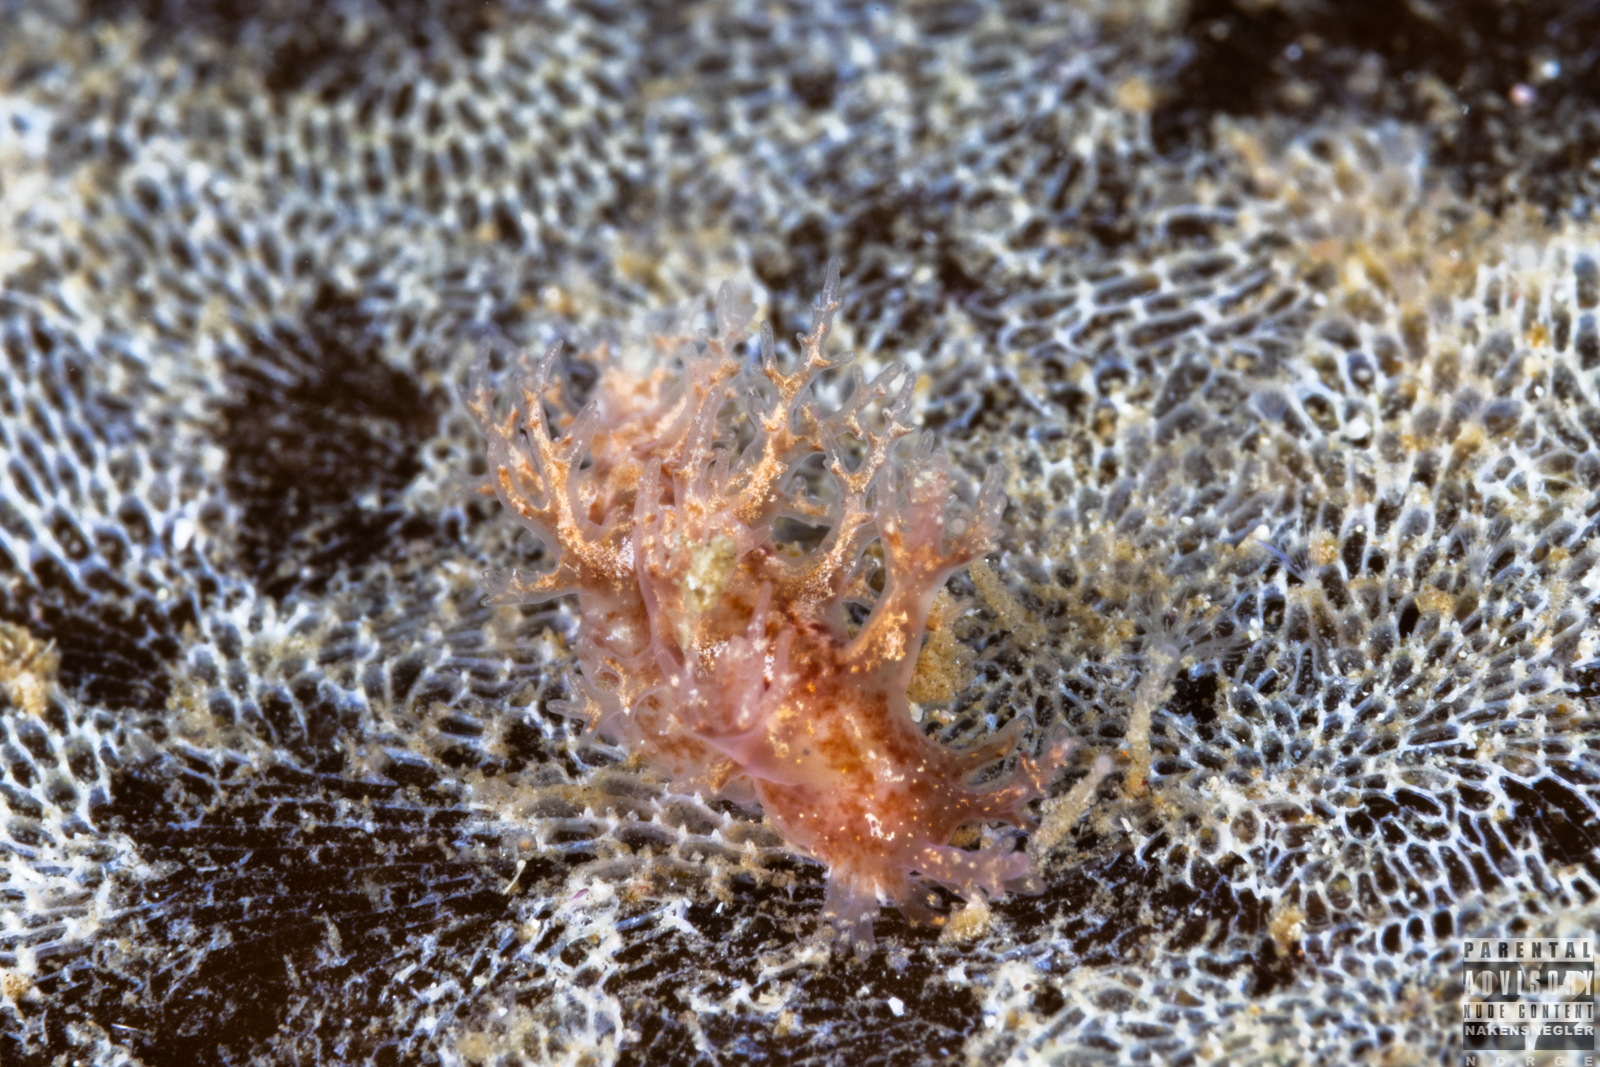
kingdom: Animalia
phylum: Mollusca
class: Gastropoda
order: Nudibranchia
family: Dendronotidae
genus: Dendronotus
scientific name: Dendronotus frondosus
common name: Bushy-backed nudibranch
